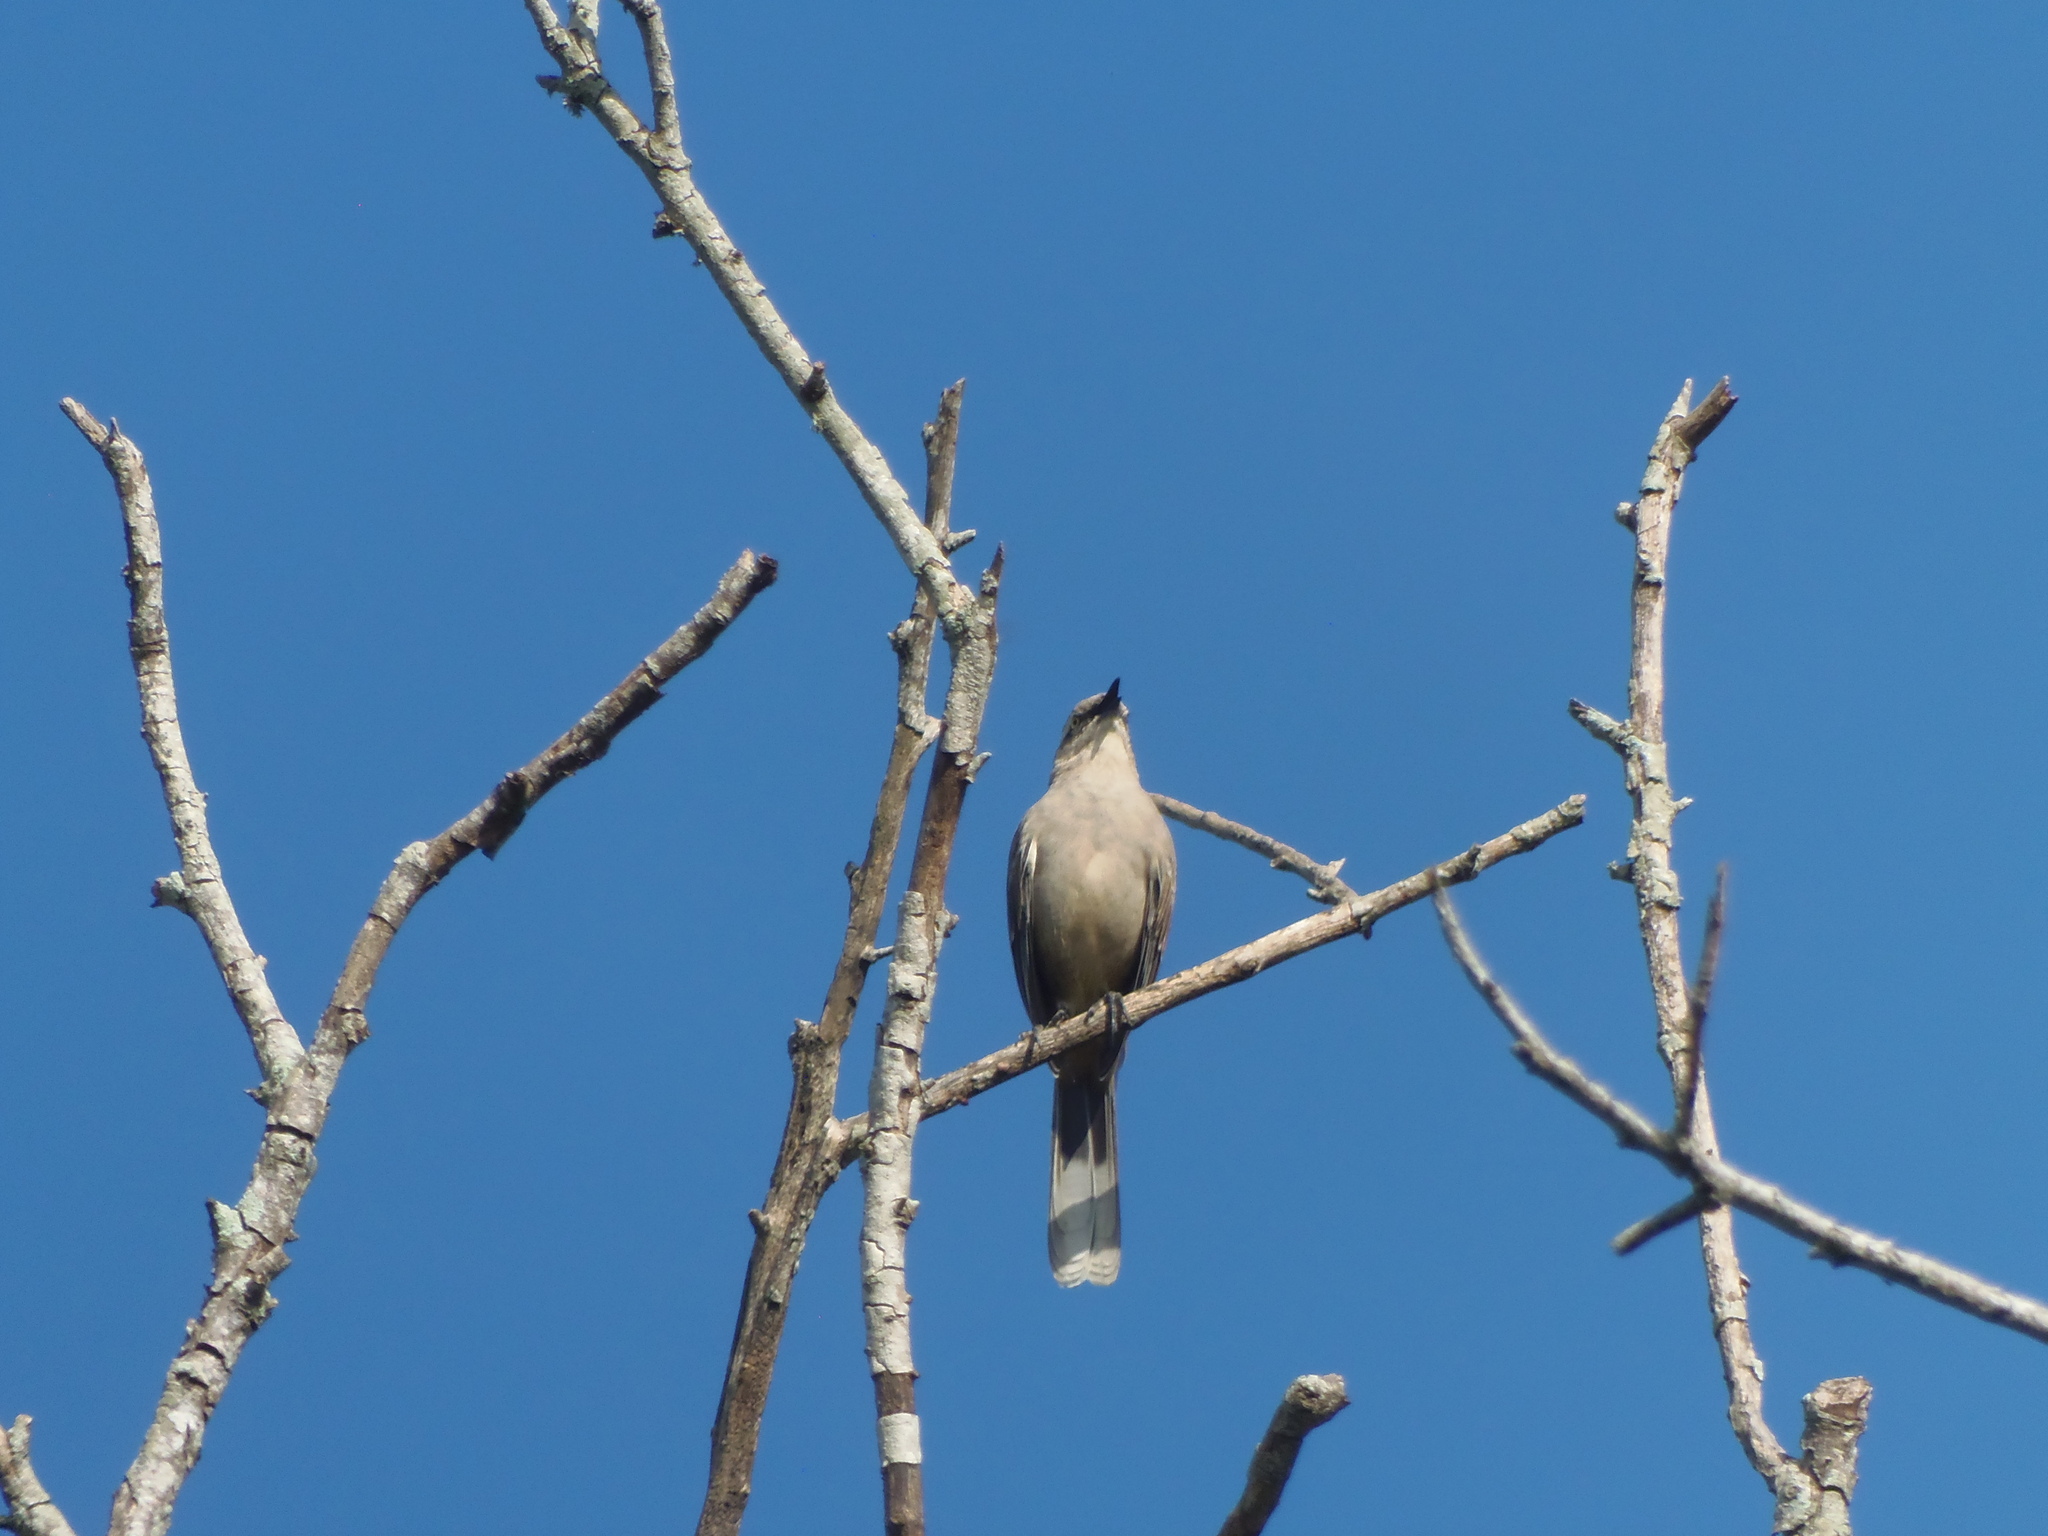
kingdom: Animalia
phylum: Chordata
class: Aves
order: Passeriformes
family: Mimidae
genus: Mimus
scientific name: Mimus saturninus
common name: Chalk-browed mockingbird
